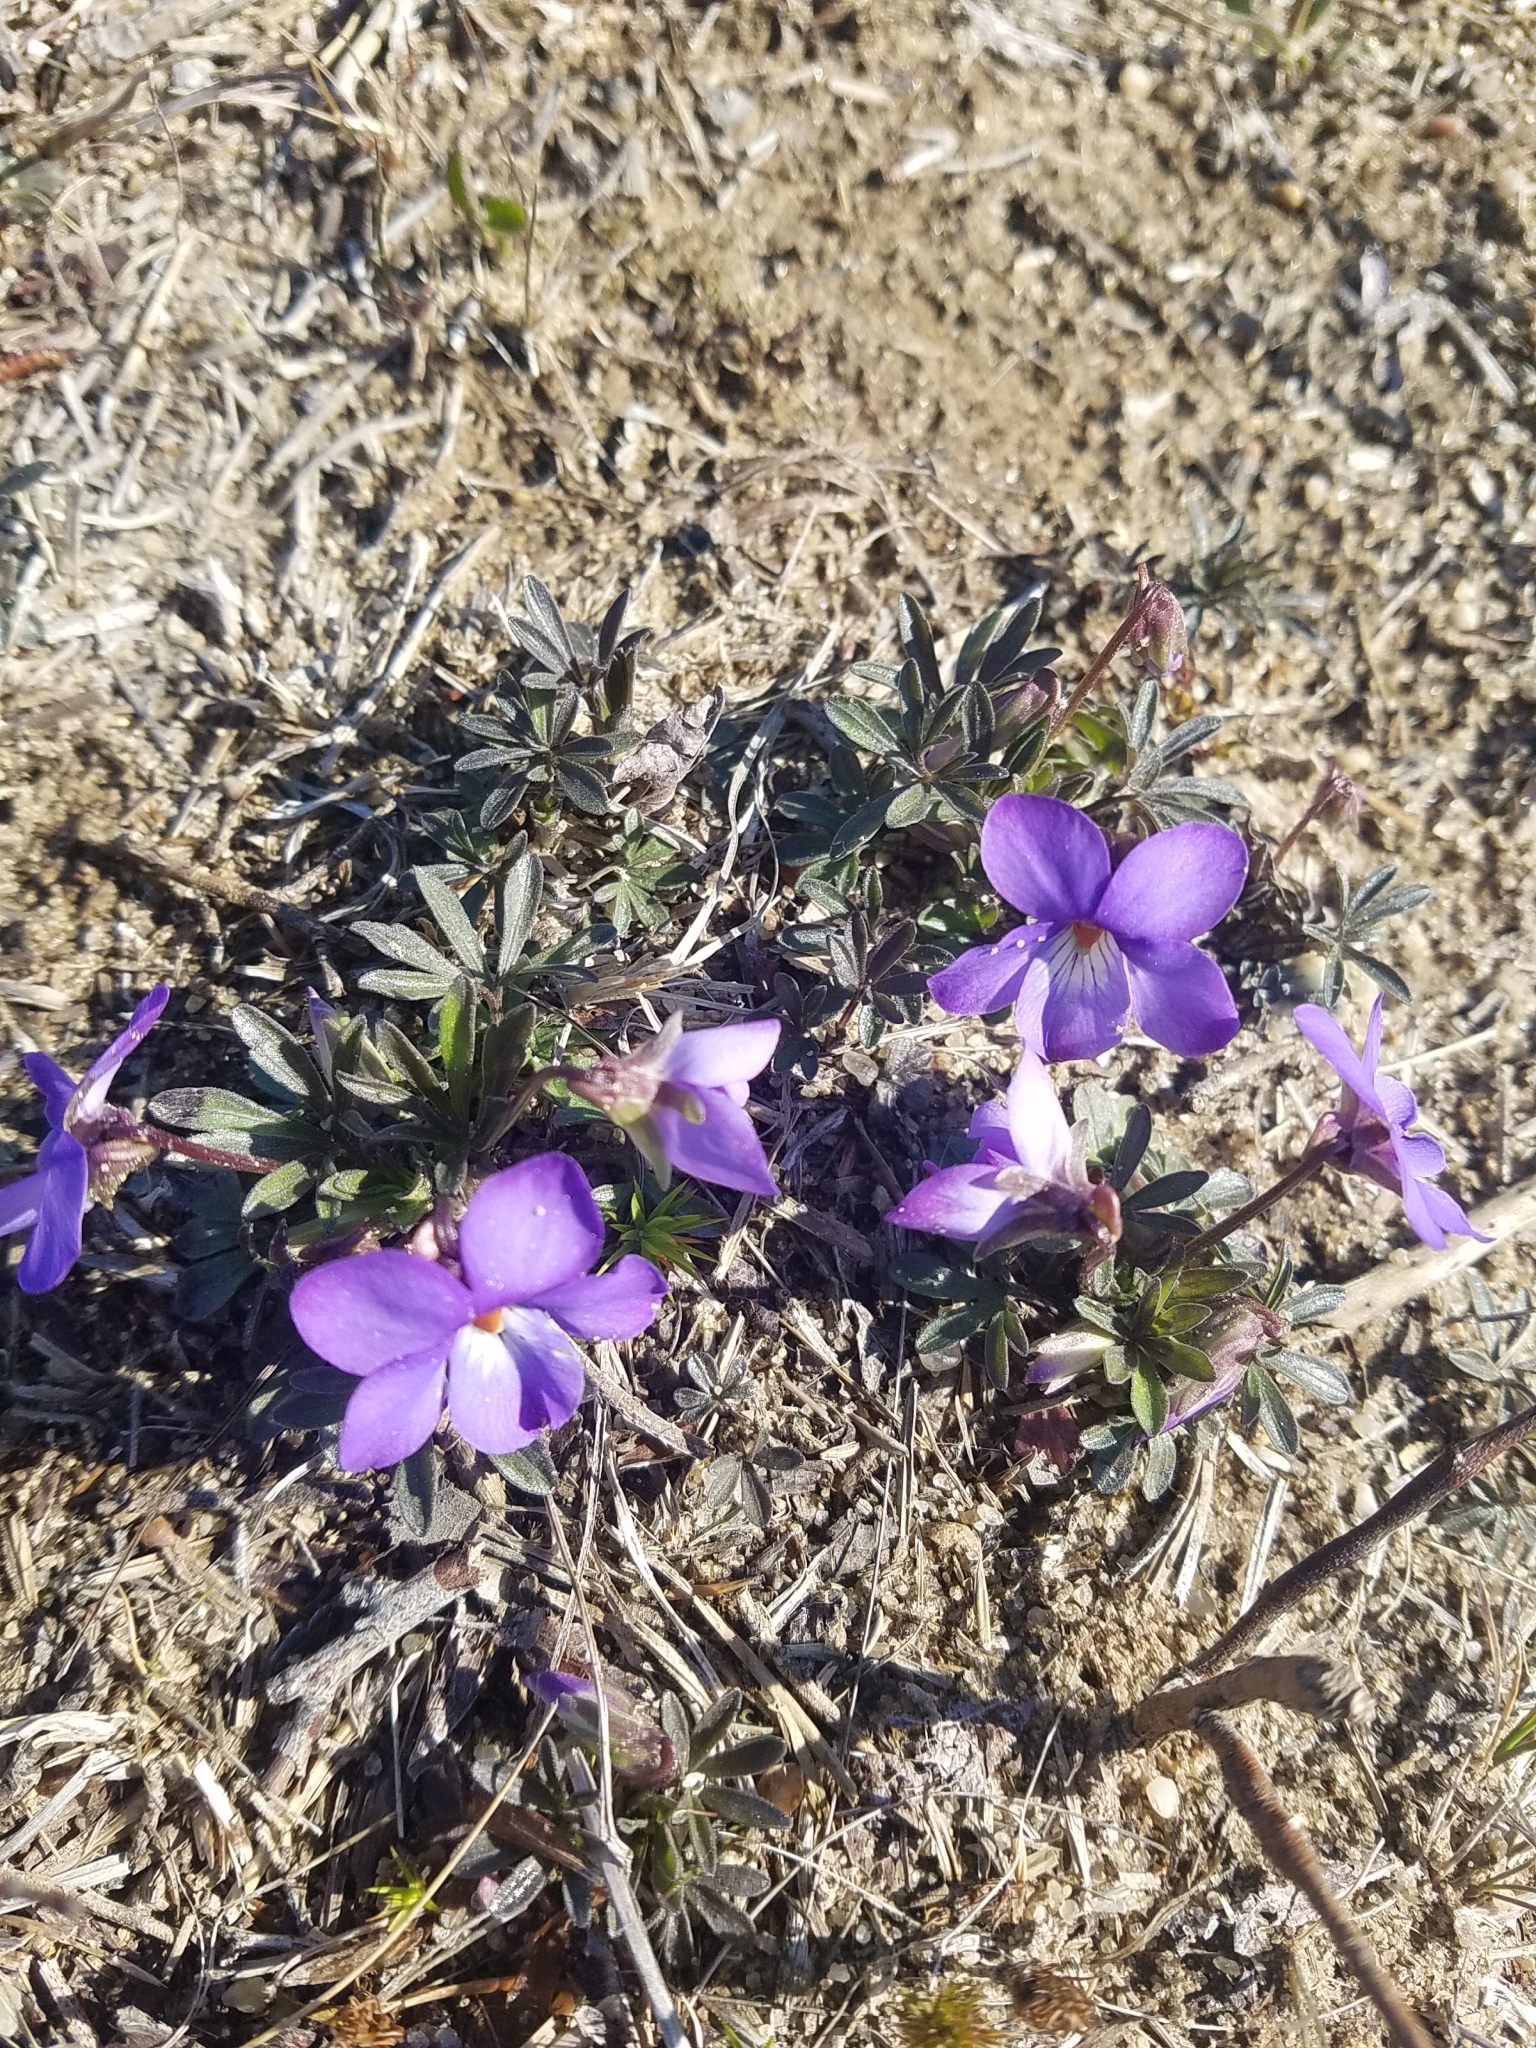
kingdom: Plantae
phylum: Tracheophyta
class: Magnoliopsida
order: Malpighiales
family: Violaceae
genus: Viola
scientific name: Viola pedata
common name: Pansy violet
